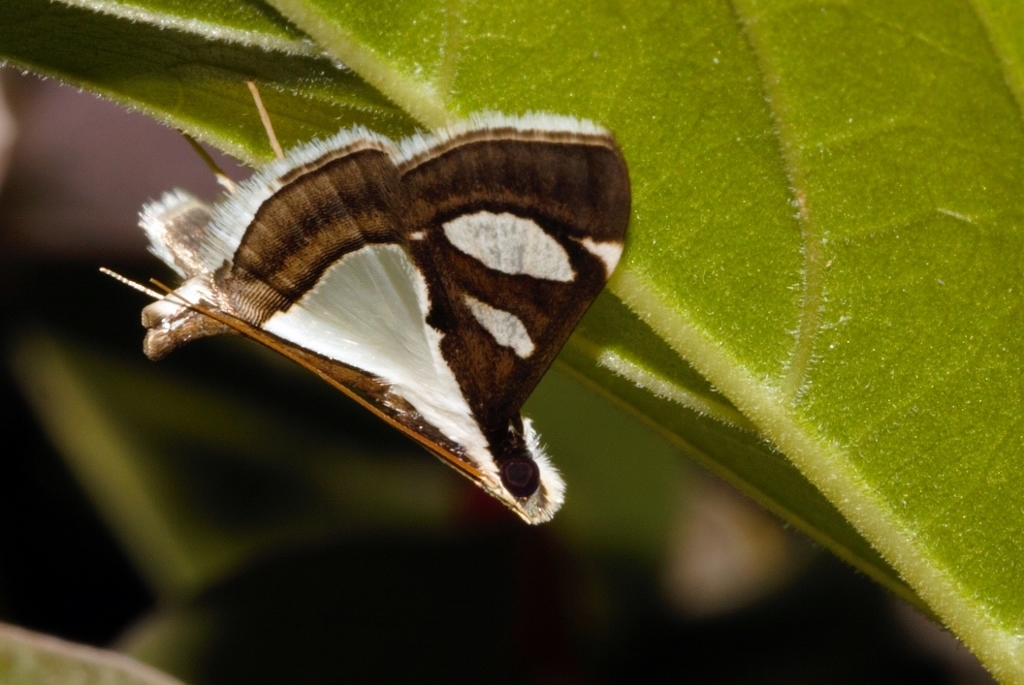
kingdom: Animalia
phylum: Arthropoda
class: Insecta
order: Lepidoptera
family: Crambidae
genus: Glyphodes
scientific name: Glyphodes bicolor
